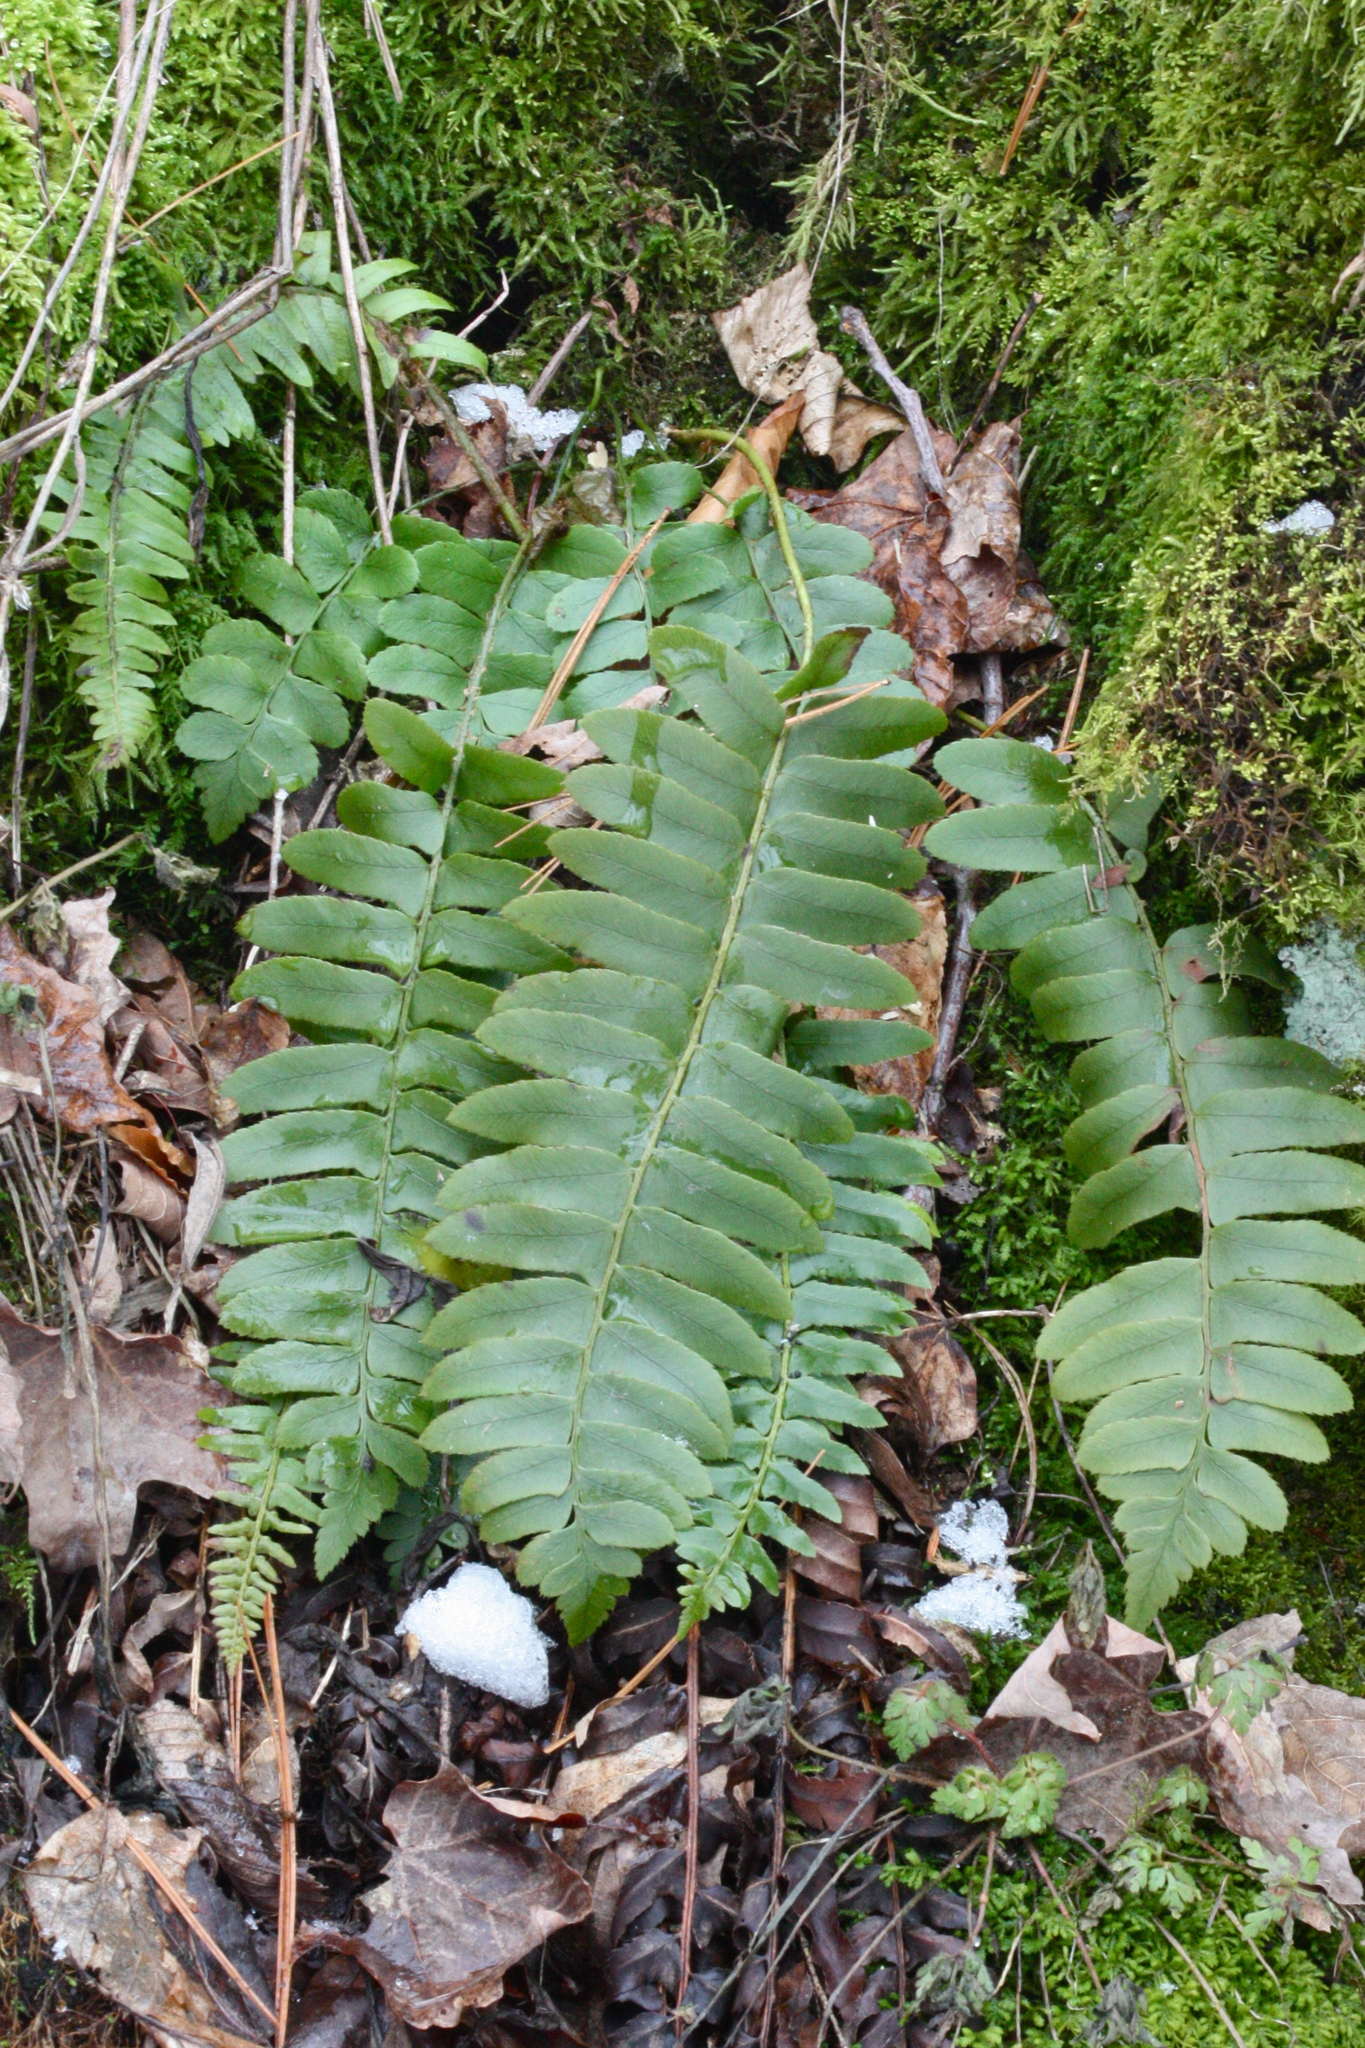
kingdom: Plantae
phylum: Tracheophyta
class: Polypodiopsida
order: Polypodiales
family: Dryopteridaceae
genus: Polystichum
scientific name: Polystichum acrostichoides
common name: Christmas fern
